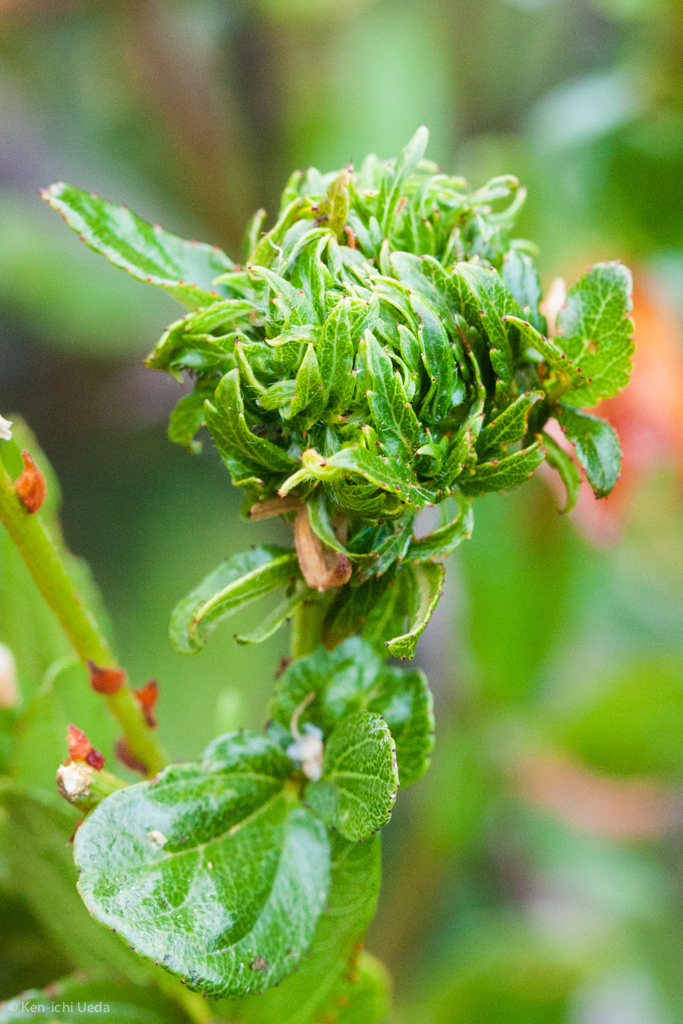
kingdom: Animalia
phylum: Arthropoda
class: Insecta
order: Diptera
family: Cecidomyiidae
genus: Asphondylia
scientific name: Asphondylia ceanothi
